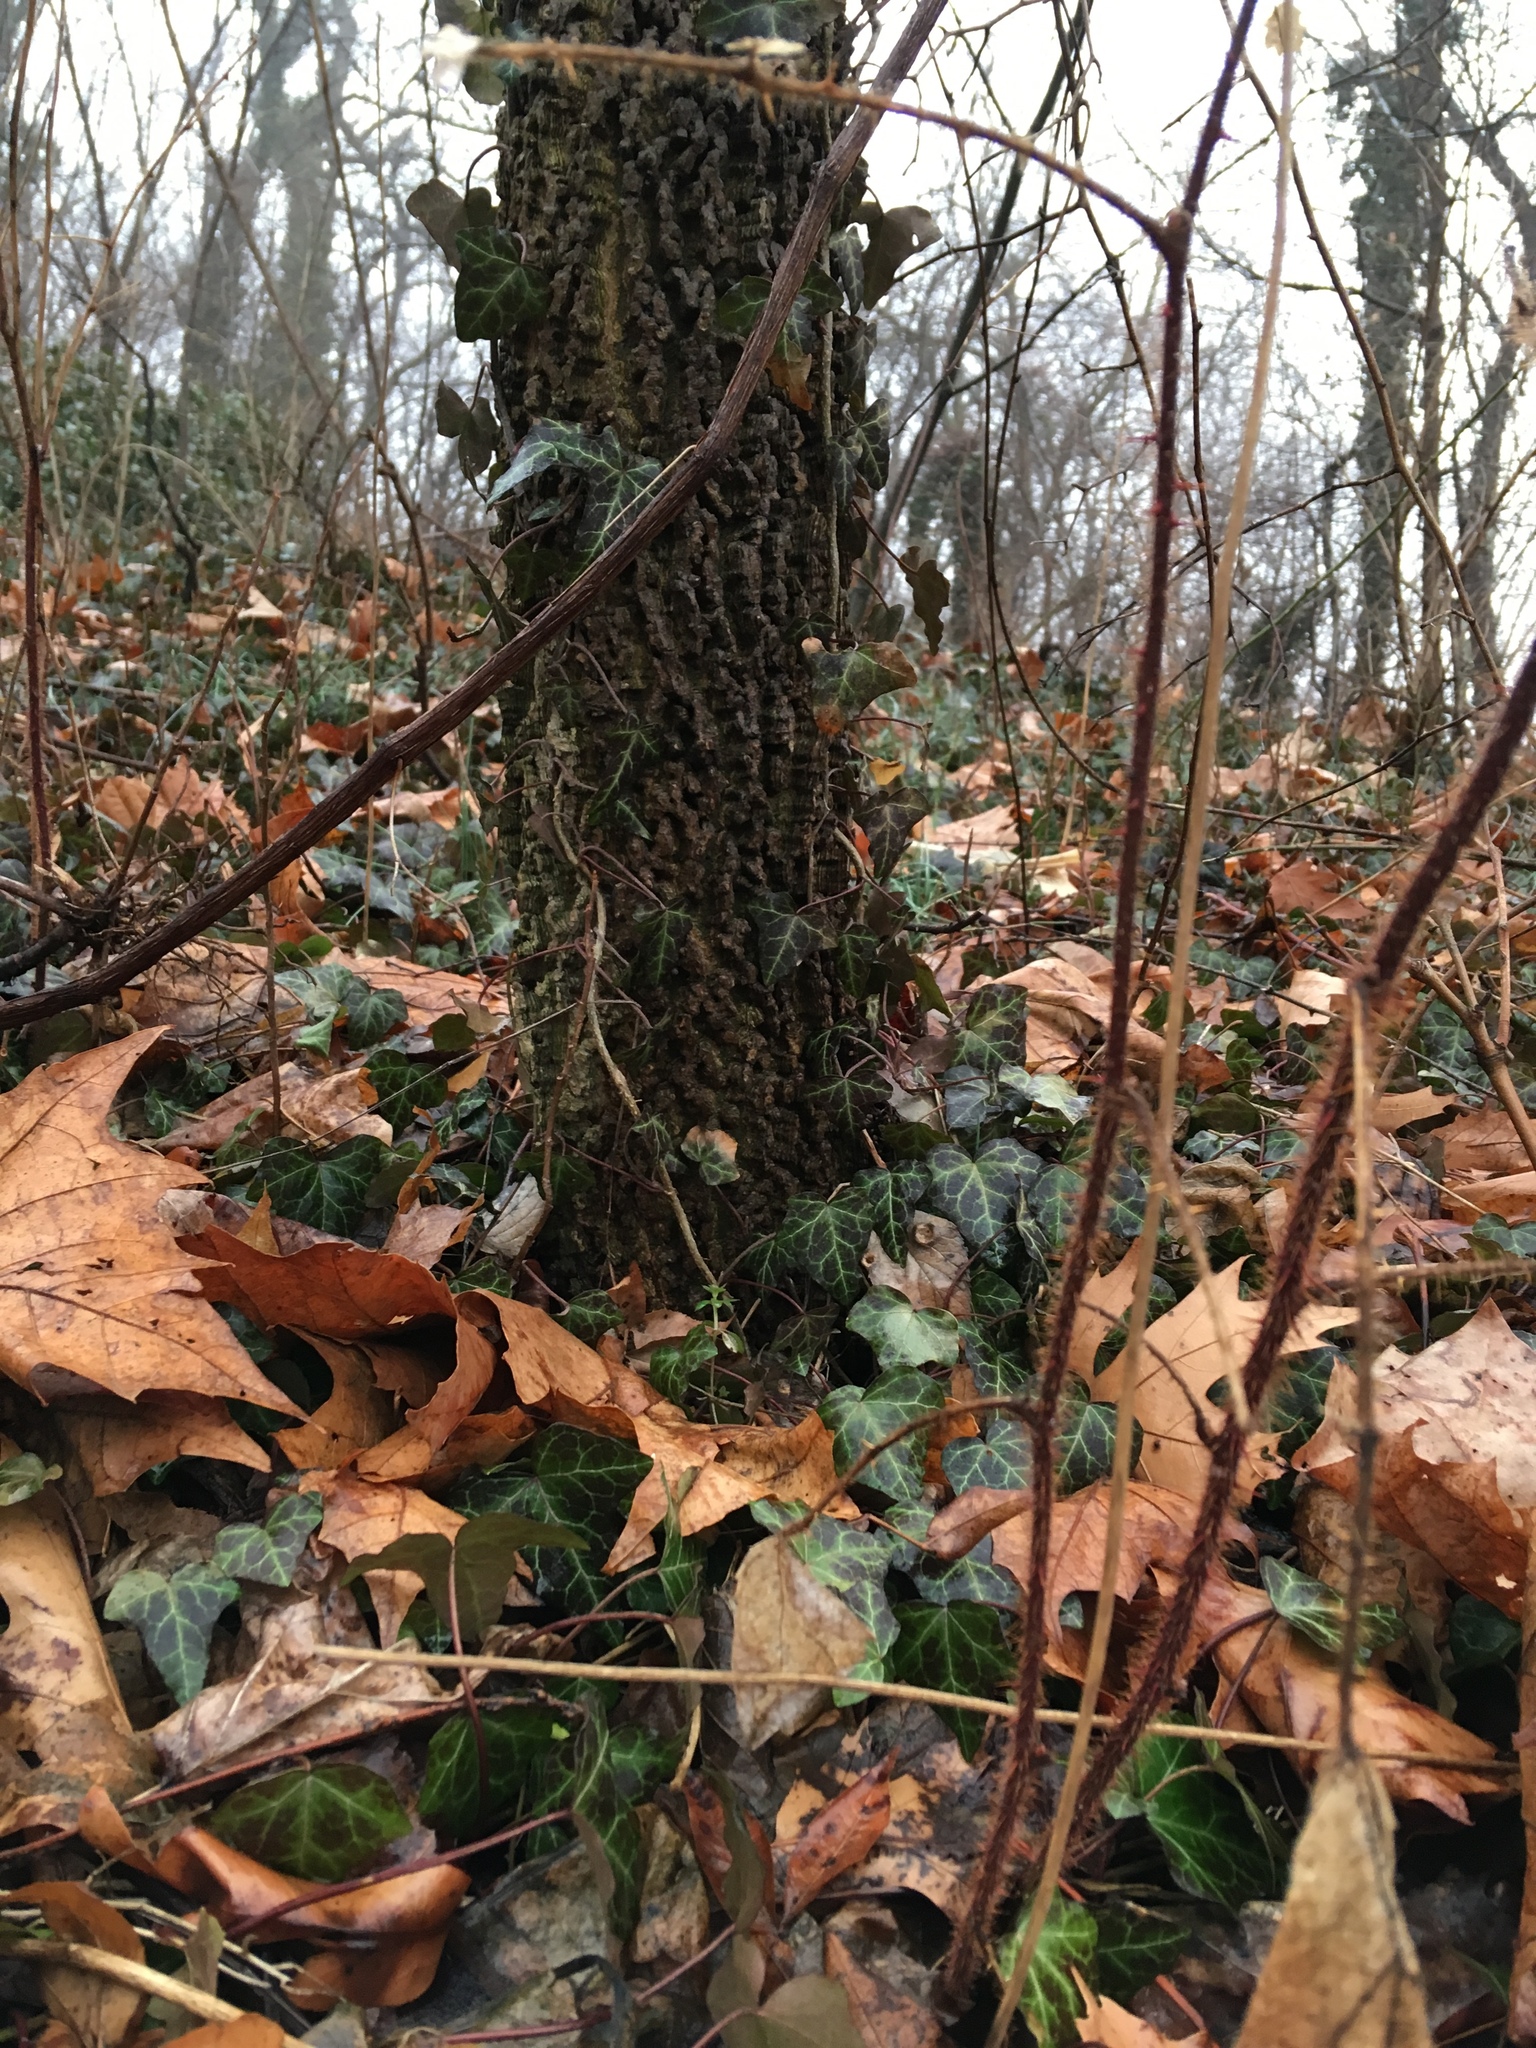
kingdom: Plantae
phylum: Tracheophyta
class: Magnoliopsida
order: Apiales
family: Araliaceae
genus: Hedera
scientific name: Hedera helix
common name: Ivy
